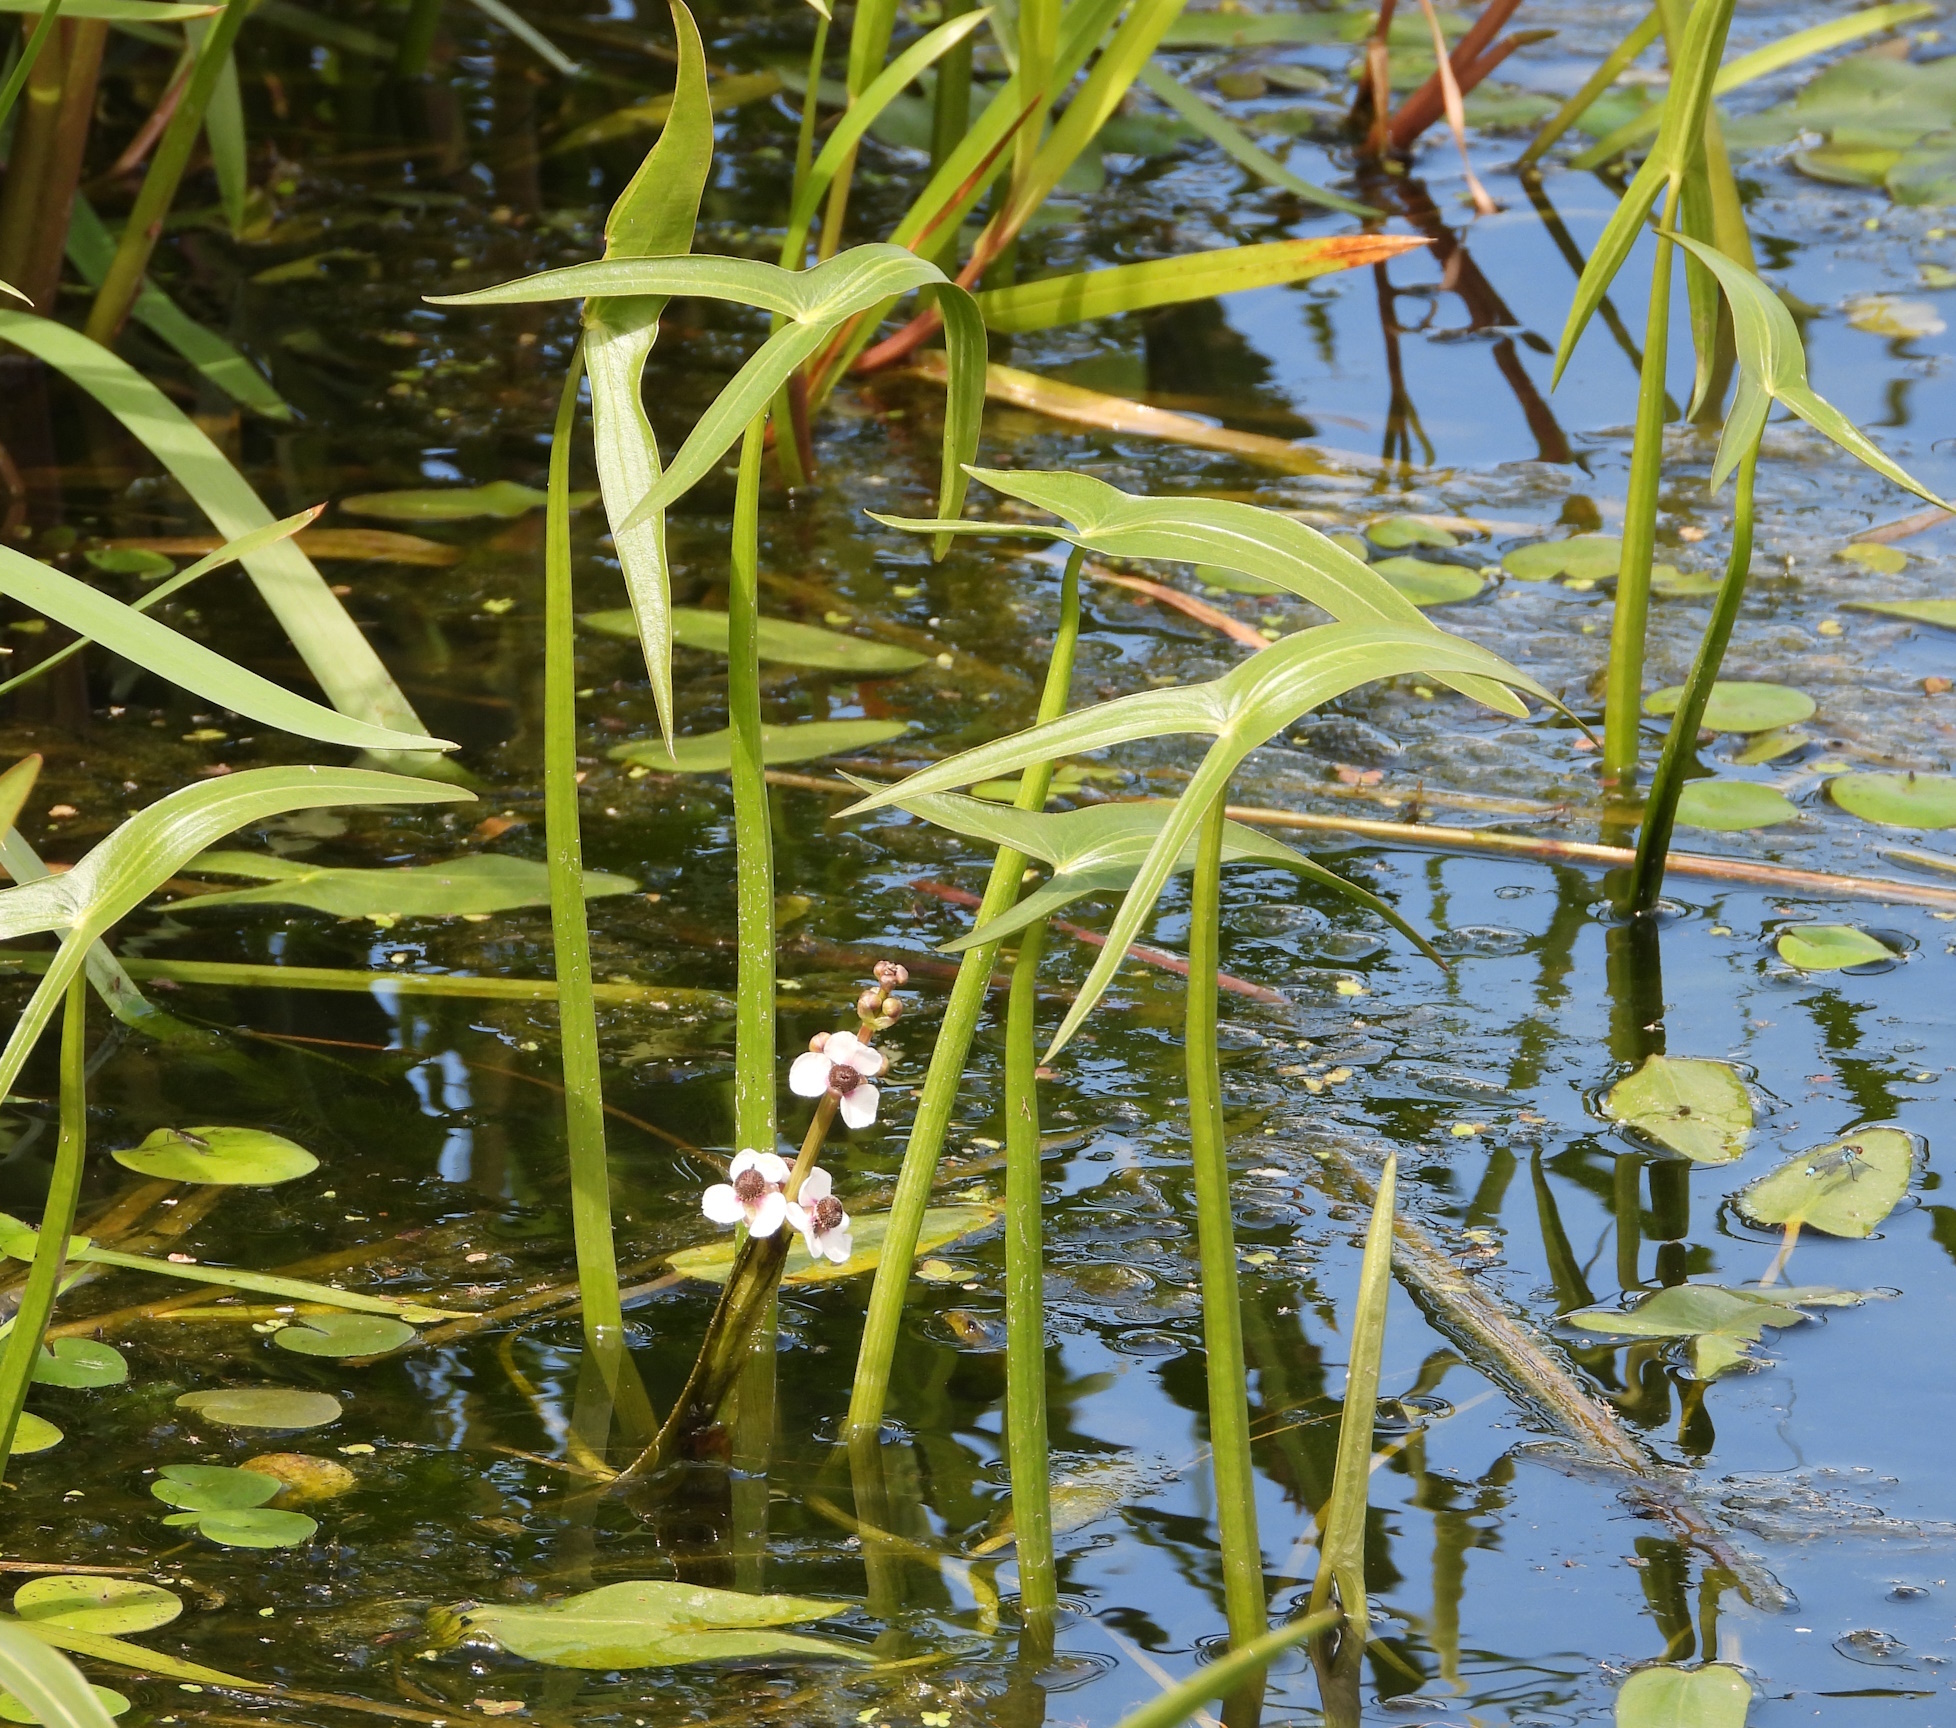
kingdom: Plantae
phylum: Tracheophyta
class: Liliopsida
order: Alismatales
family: Alismataceae
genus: Sagittaria
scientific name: Sagittaria sagittifolia
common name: Arrowhead
